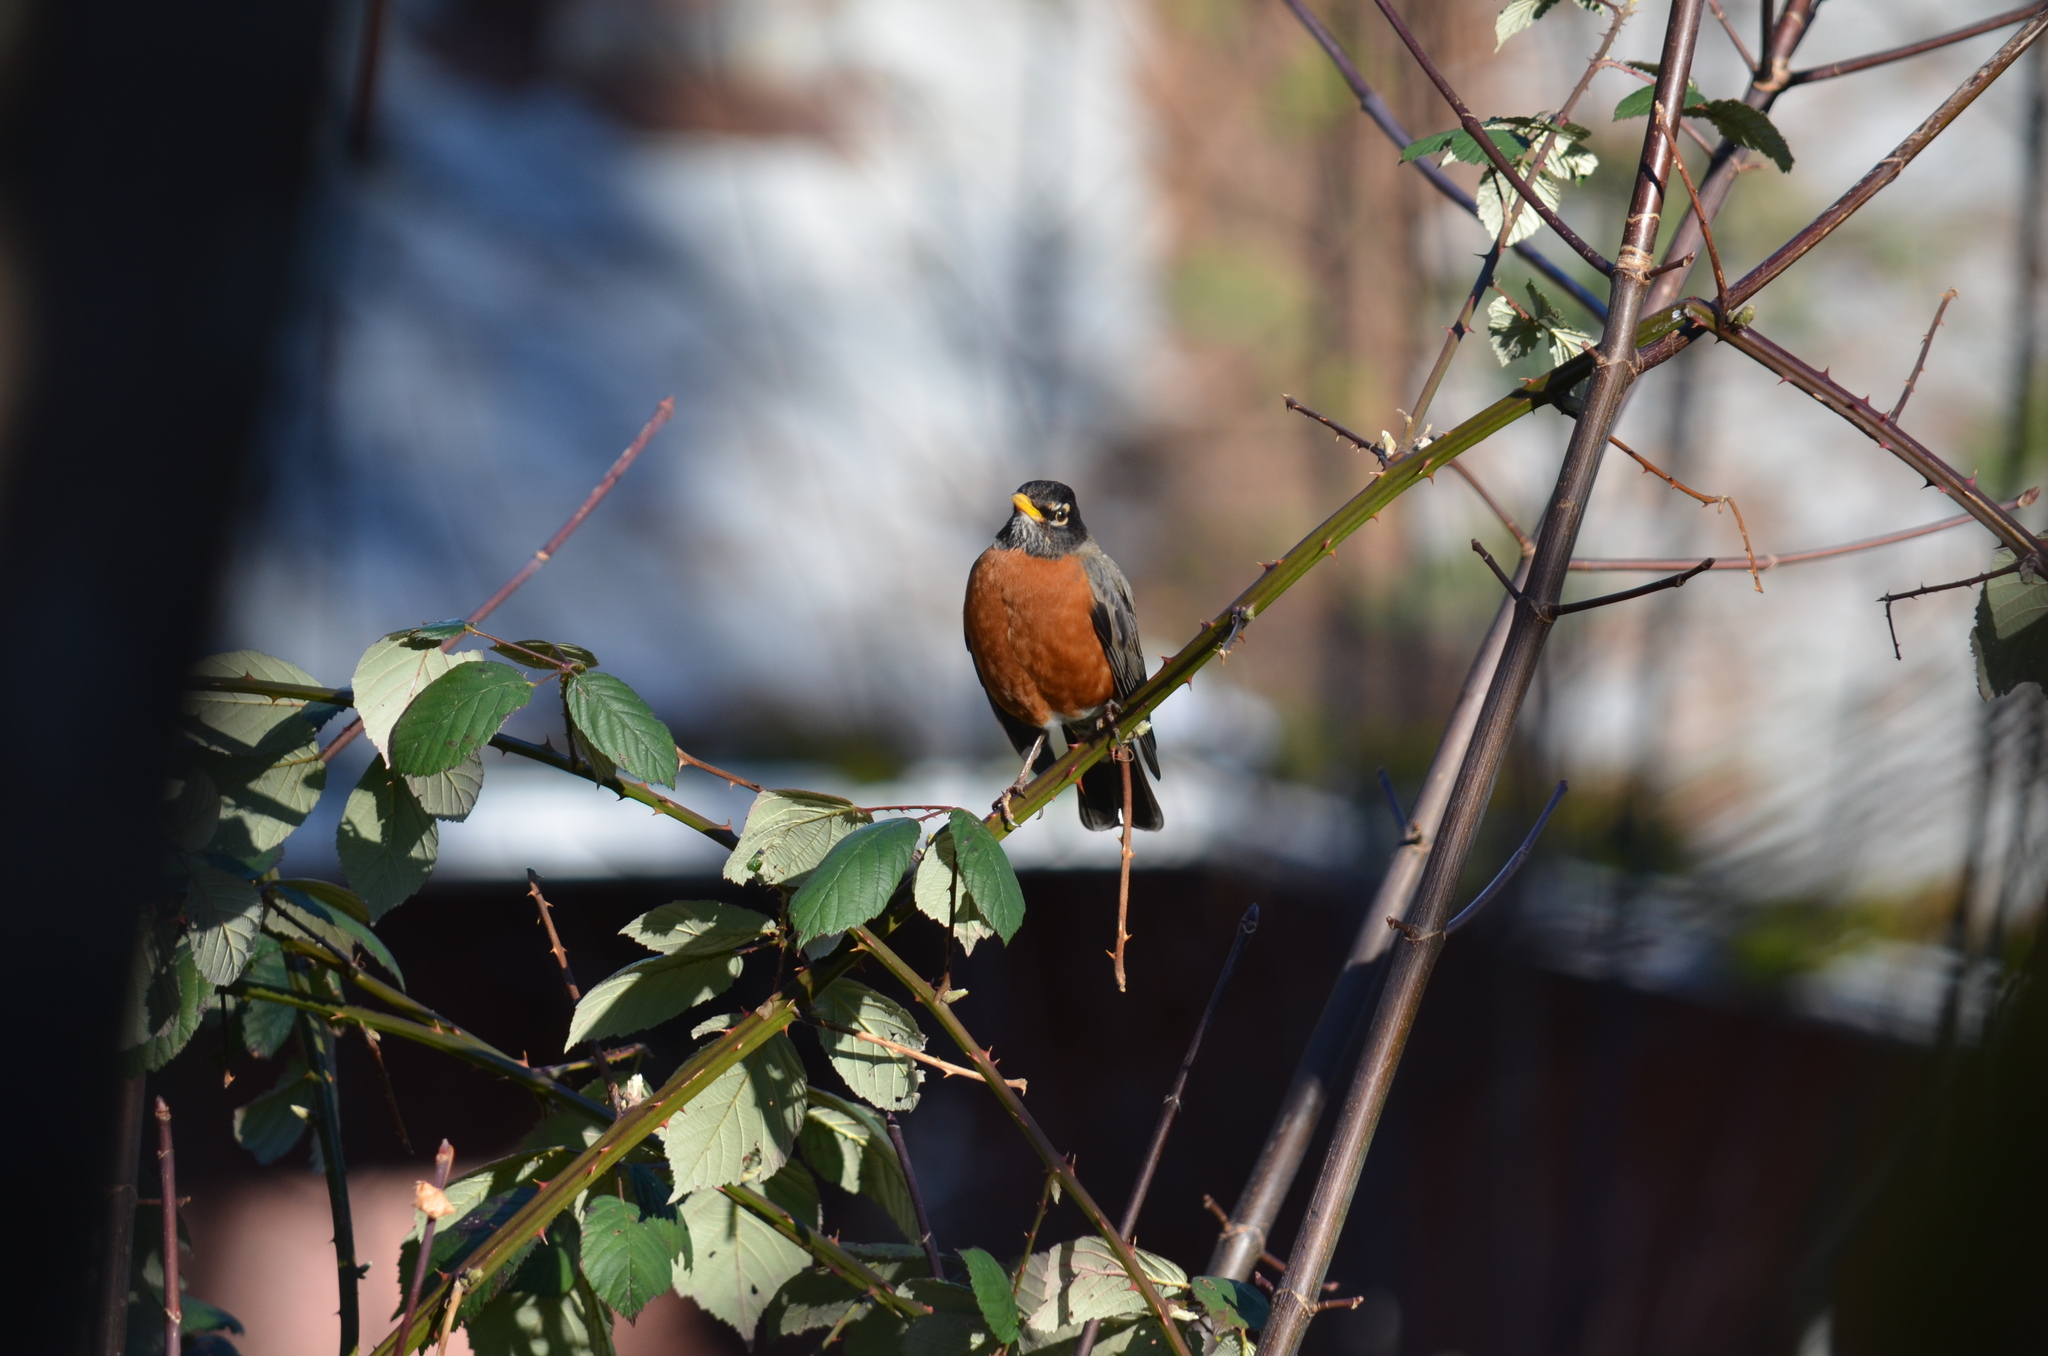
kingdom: Animalia
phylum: Chordata
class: Aves
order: Passeriformes
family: Turdidae
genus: Turdus
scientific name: Turdus migratorius
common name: American robin
